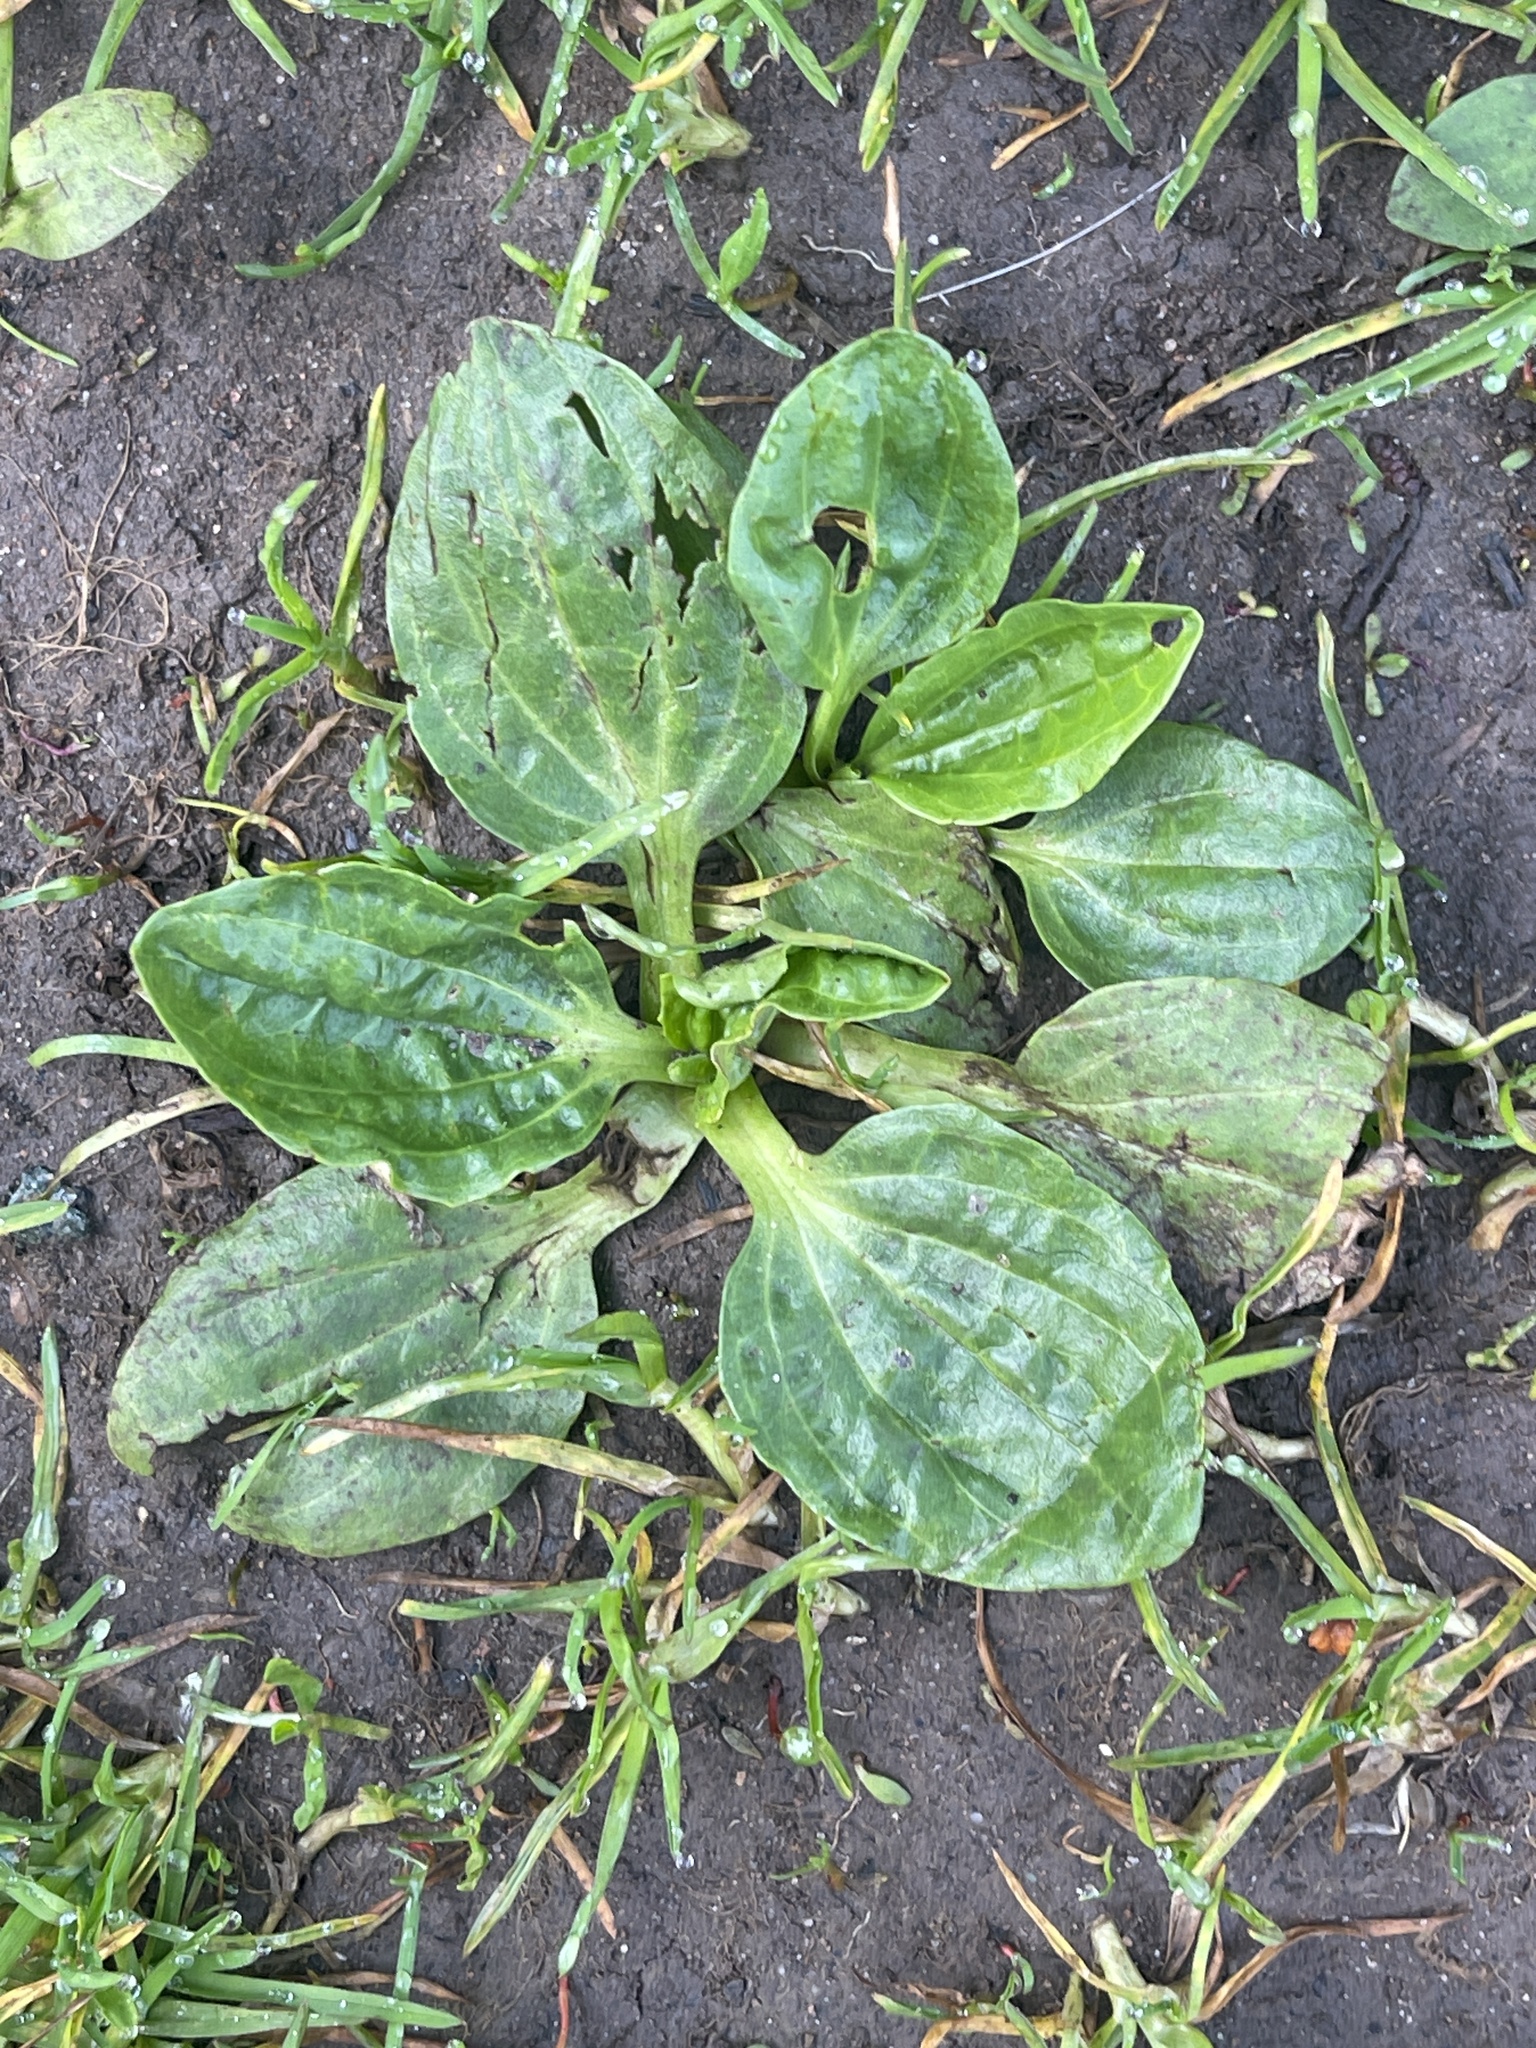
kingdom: Plantae
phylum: Tracheophyta
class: Magnoliopsida
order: Lamiales
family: Plantaginaceae
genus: Plantago
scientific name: Plantago major
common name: Common plantain
